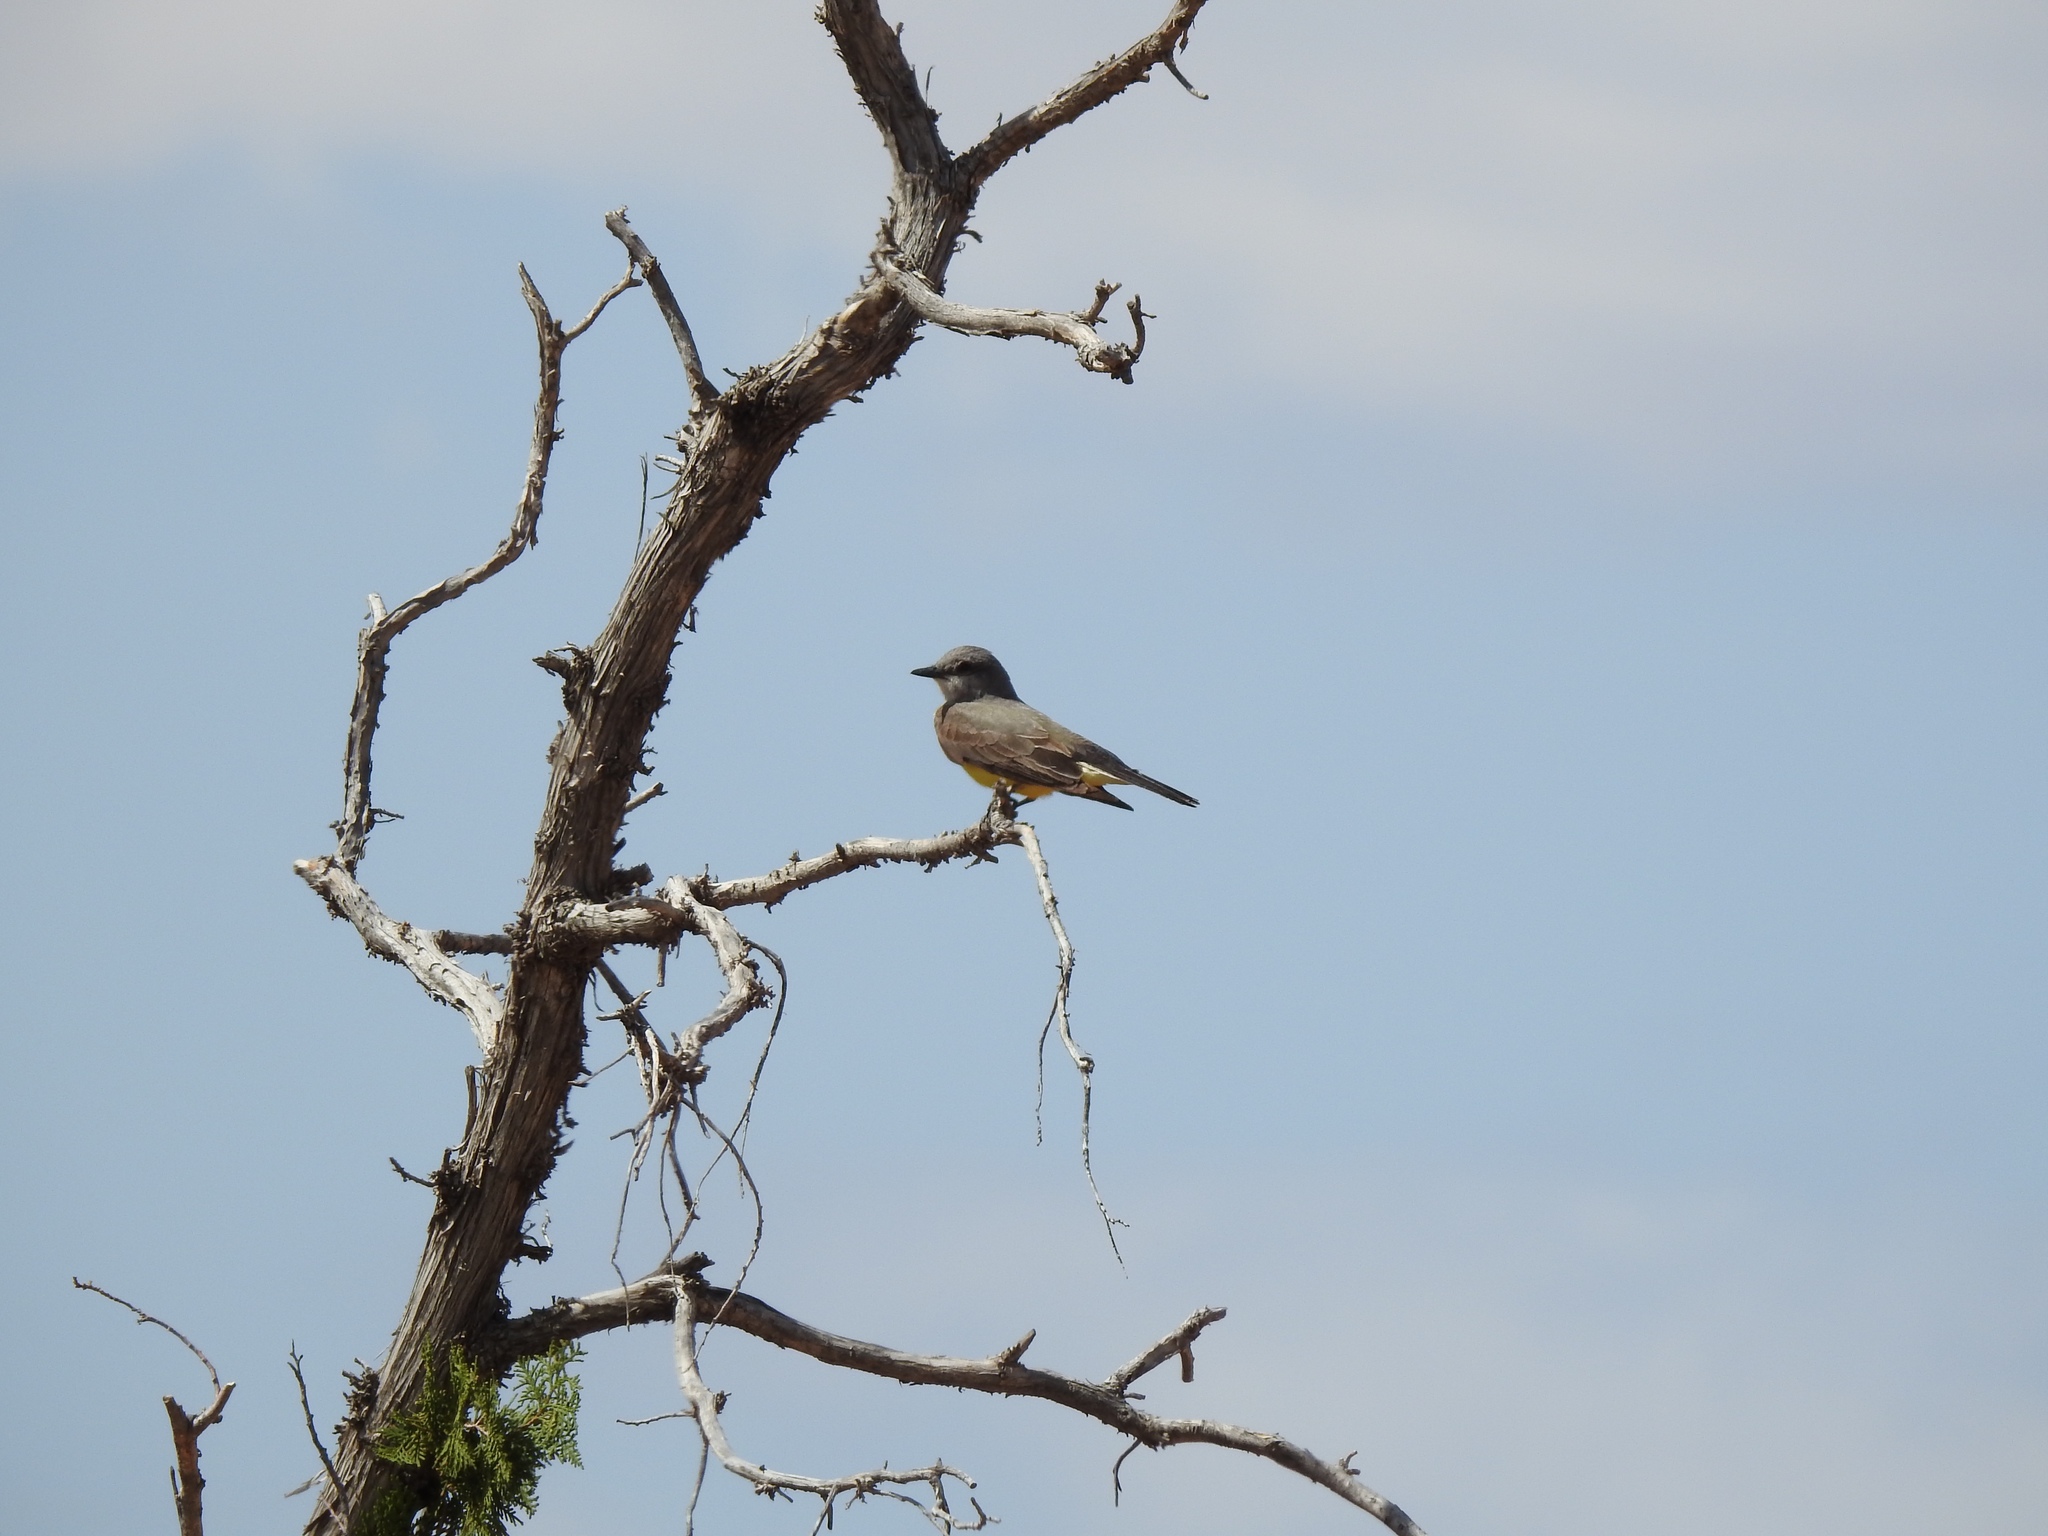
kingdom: Animalia
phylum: Chordata
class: Aves
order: Passeriformes
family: Tyrannidae
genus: Tyrannus
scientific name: Tyrannus verticalis
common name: Western kingbird
